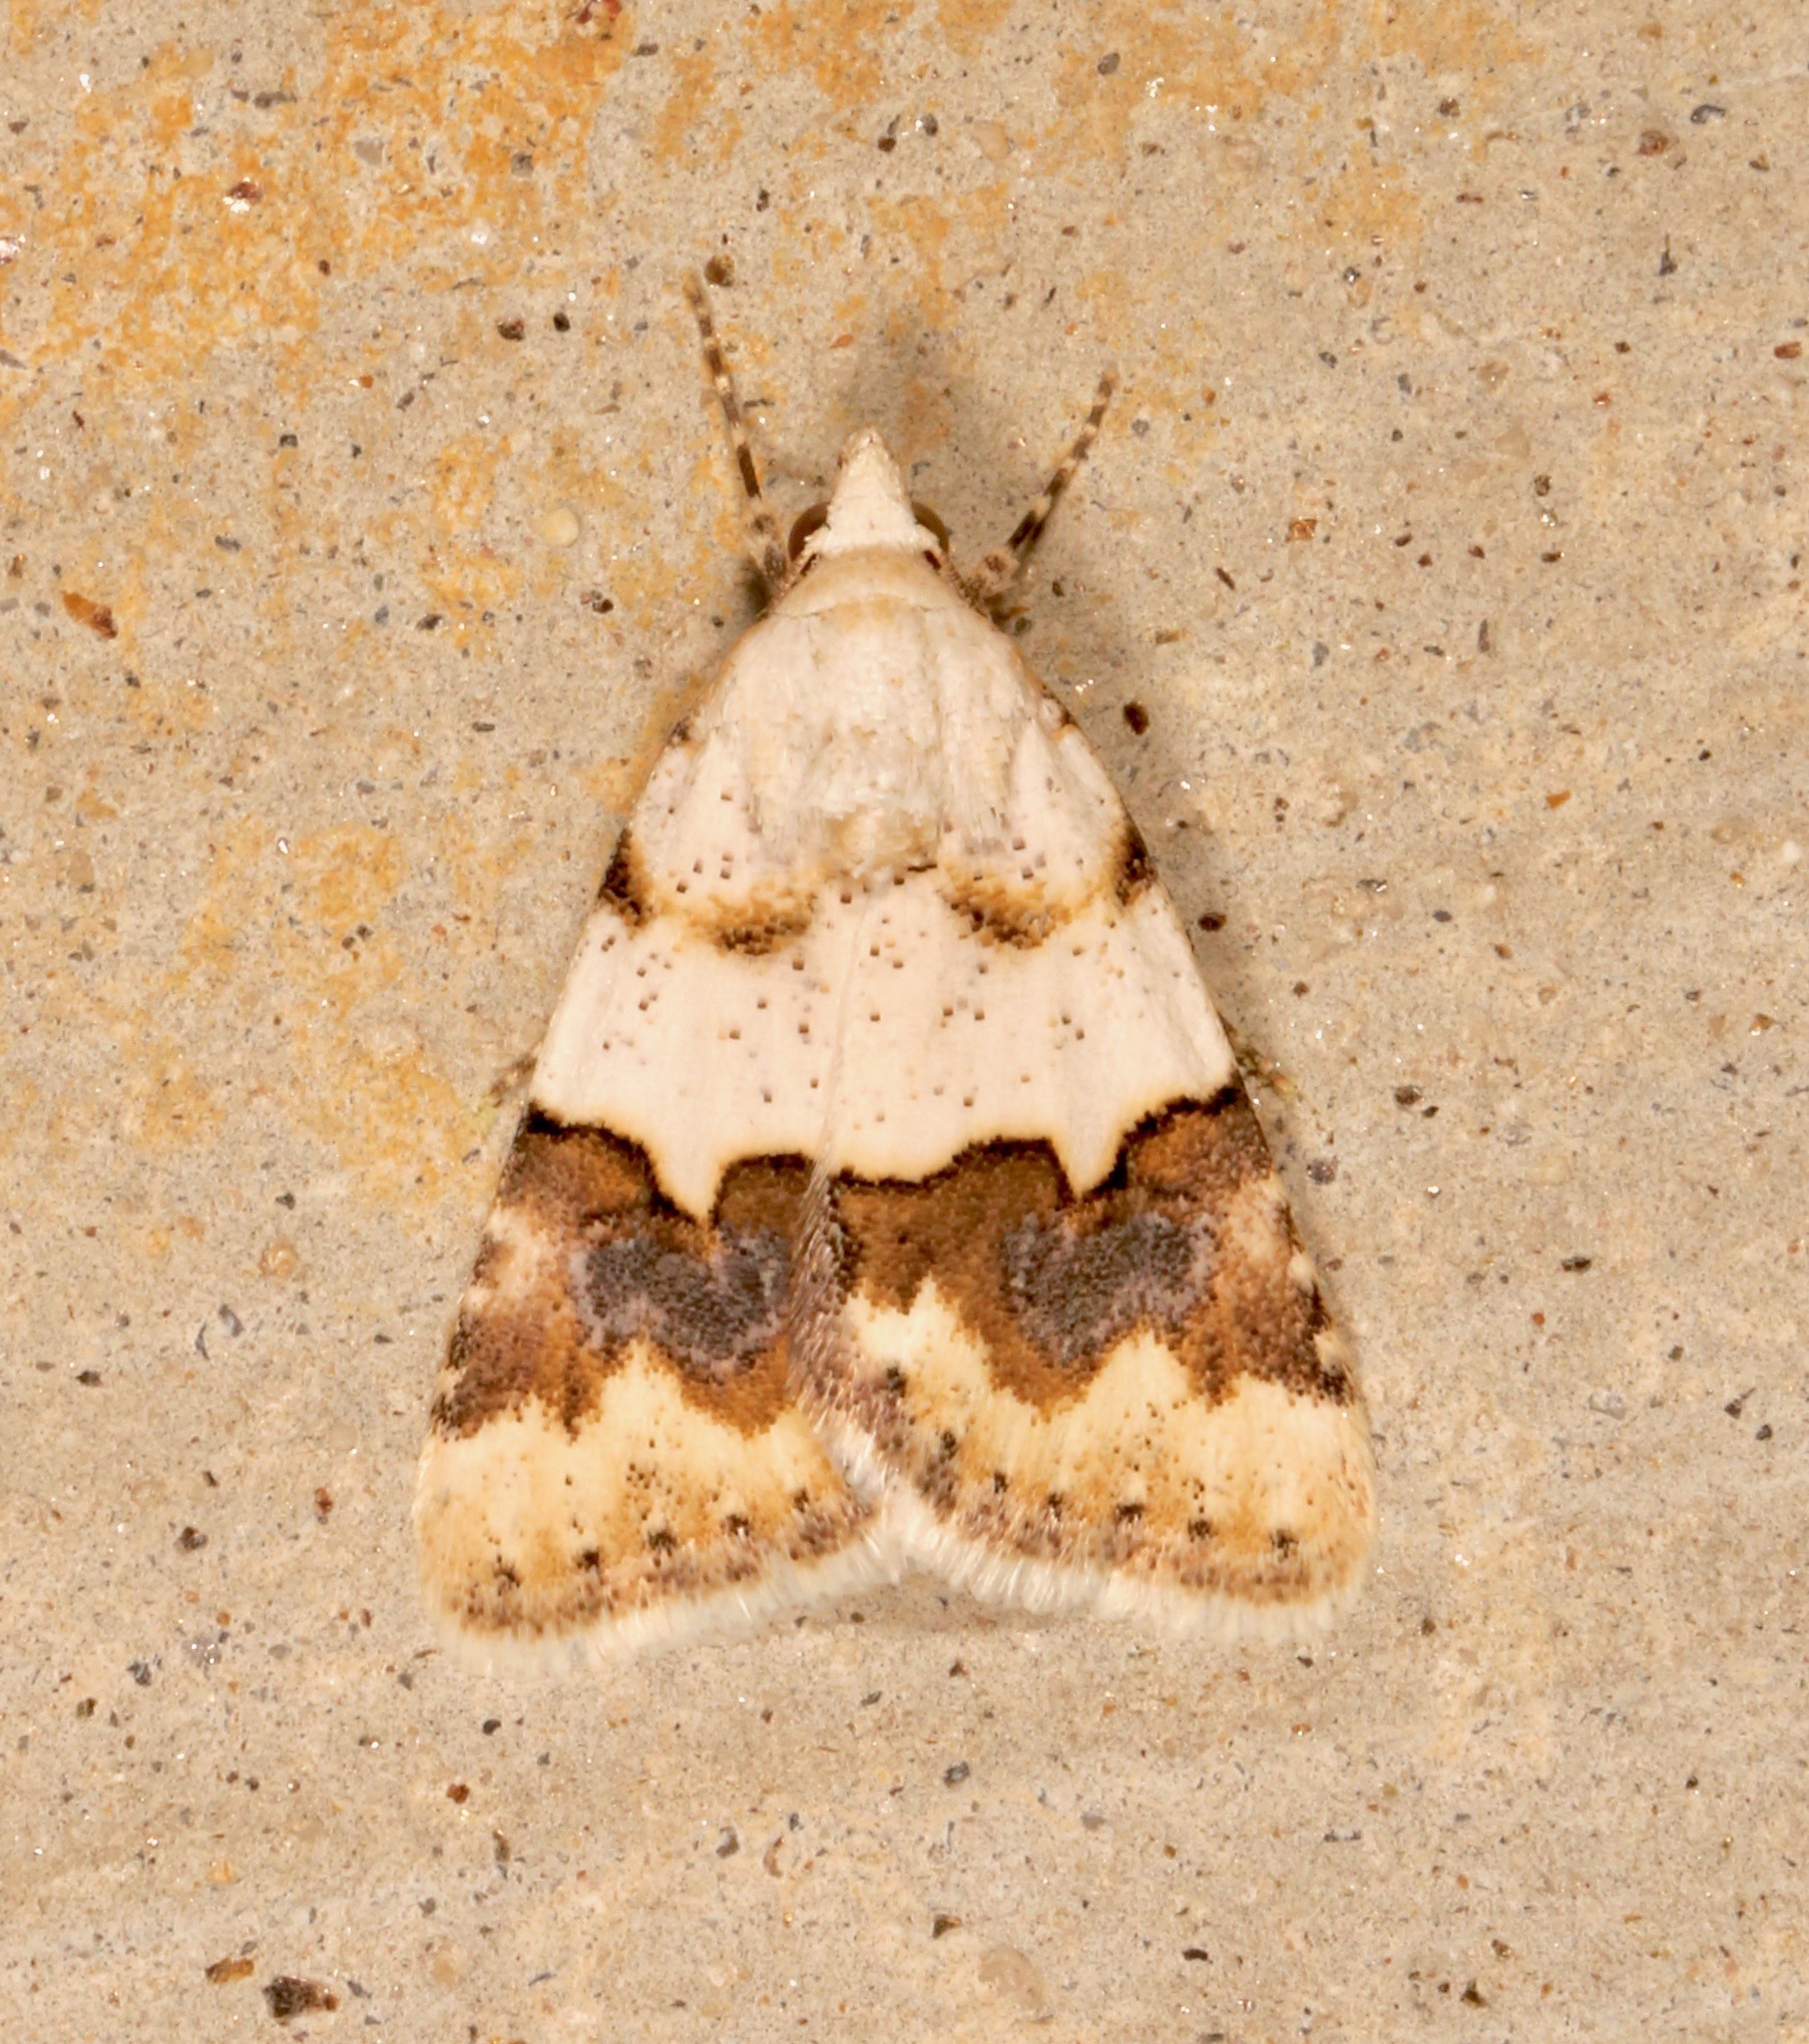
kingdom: Animalia
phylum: Arthropoda
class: Insecta
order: Lepidoptera
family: Noctuidae
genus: Euaontia
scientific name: Euaontia clarki
